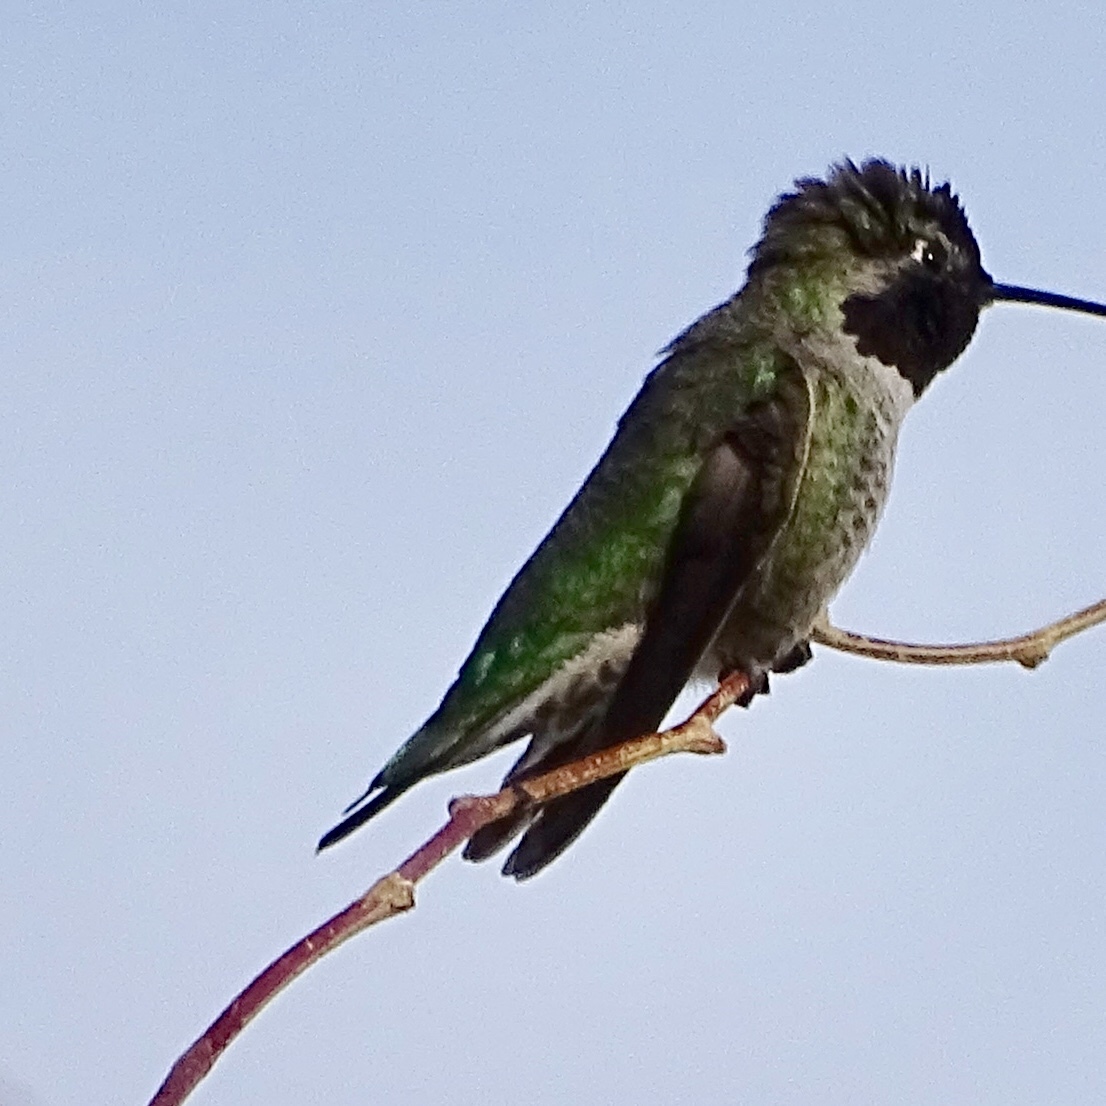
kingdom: Animalia
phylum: Chordata
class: Aves
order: Apodiformes
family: Trochilidae
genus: Calypte
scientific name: Calypte anna
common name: Anna's hummingbird
